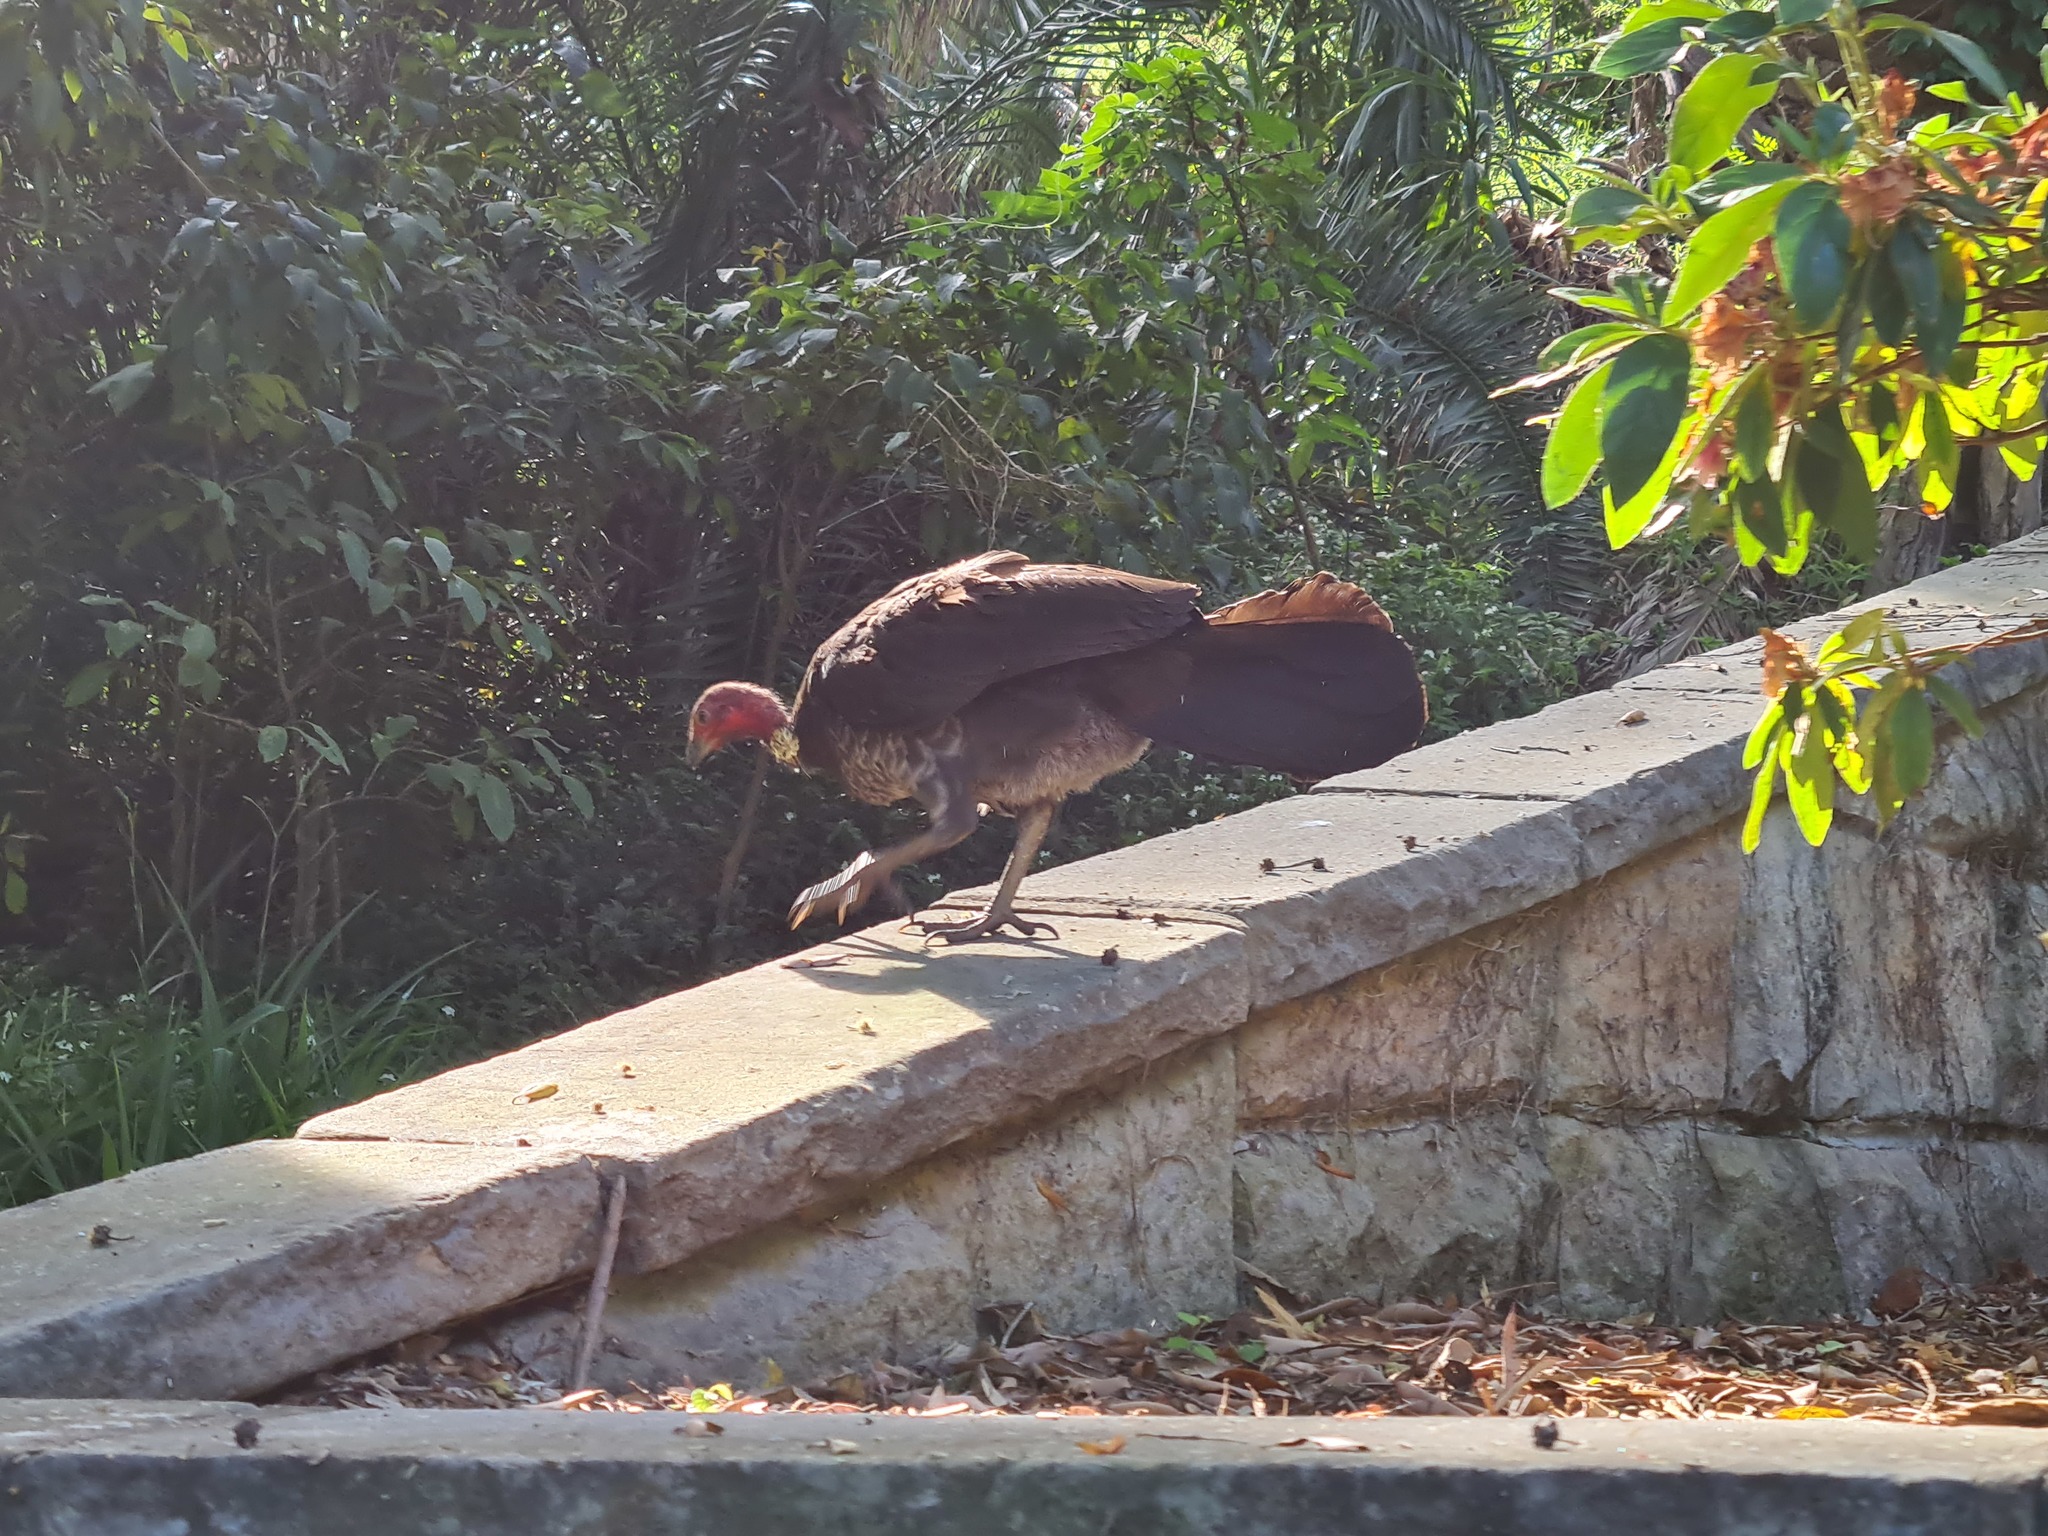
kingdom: Animalia
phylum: Chordata
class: Aves
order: Galliformes
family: Megapodiidae
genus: Alectura
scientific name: Alectura lathami
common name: Australian brushturkey
